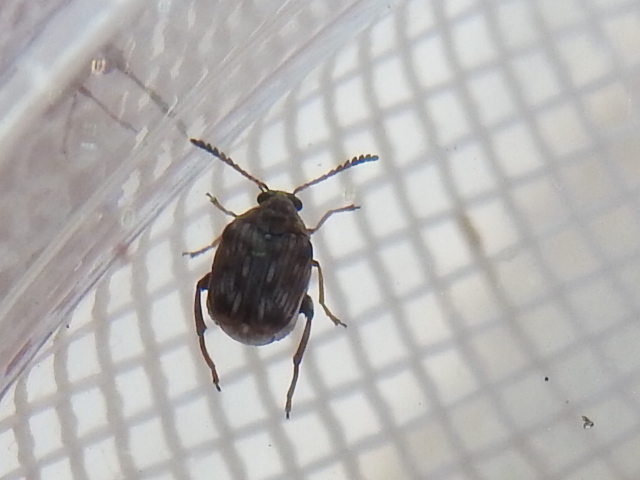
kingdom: Animalia
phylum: Arthropoda
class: Insecta
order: Coleoptera
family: Chrysomelidae
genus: Megacerus
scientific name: Megacerus cubiculus
